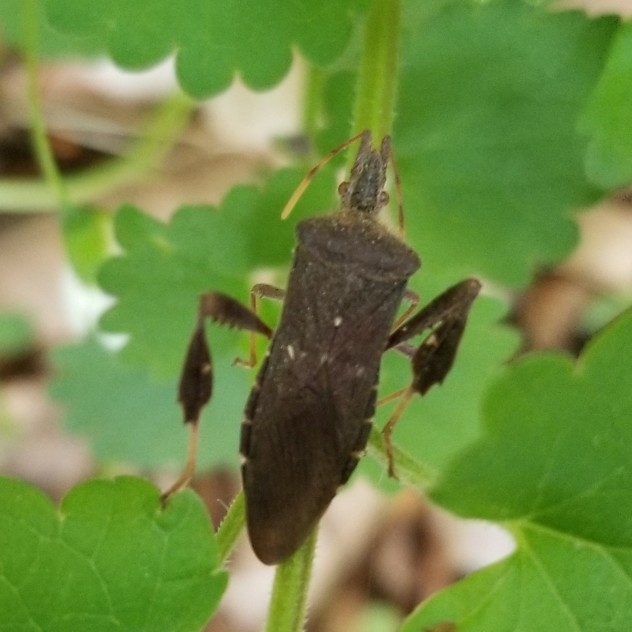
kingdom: Animalia
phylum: Arthropoda
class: Insecta
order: Hemiptera
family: Coreidae
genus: Leptoglossus
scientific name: Leptoglossus oppositus
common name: Northern leaf-footed bug
